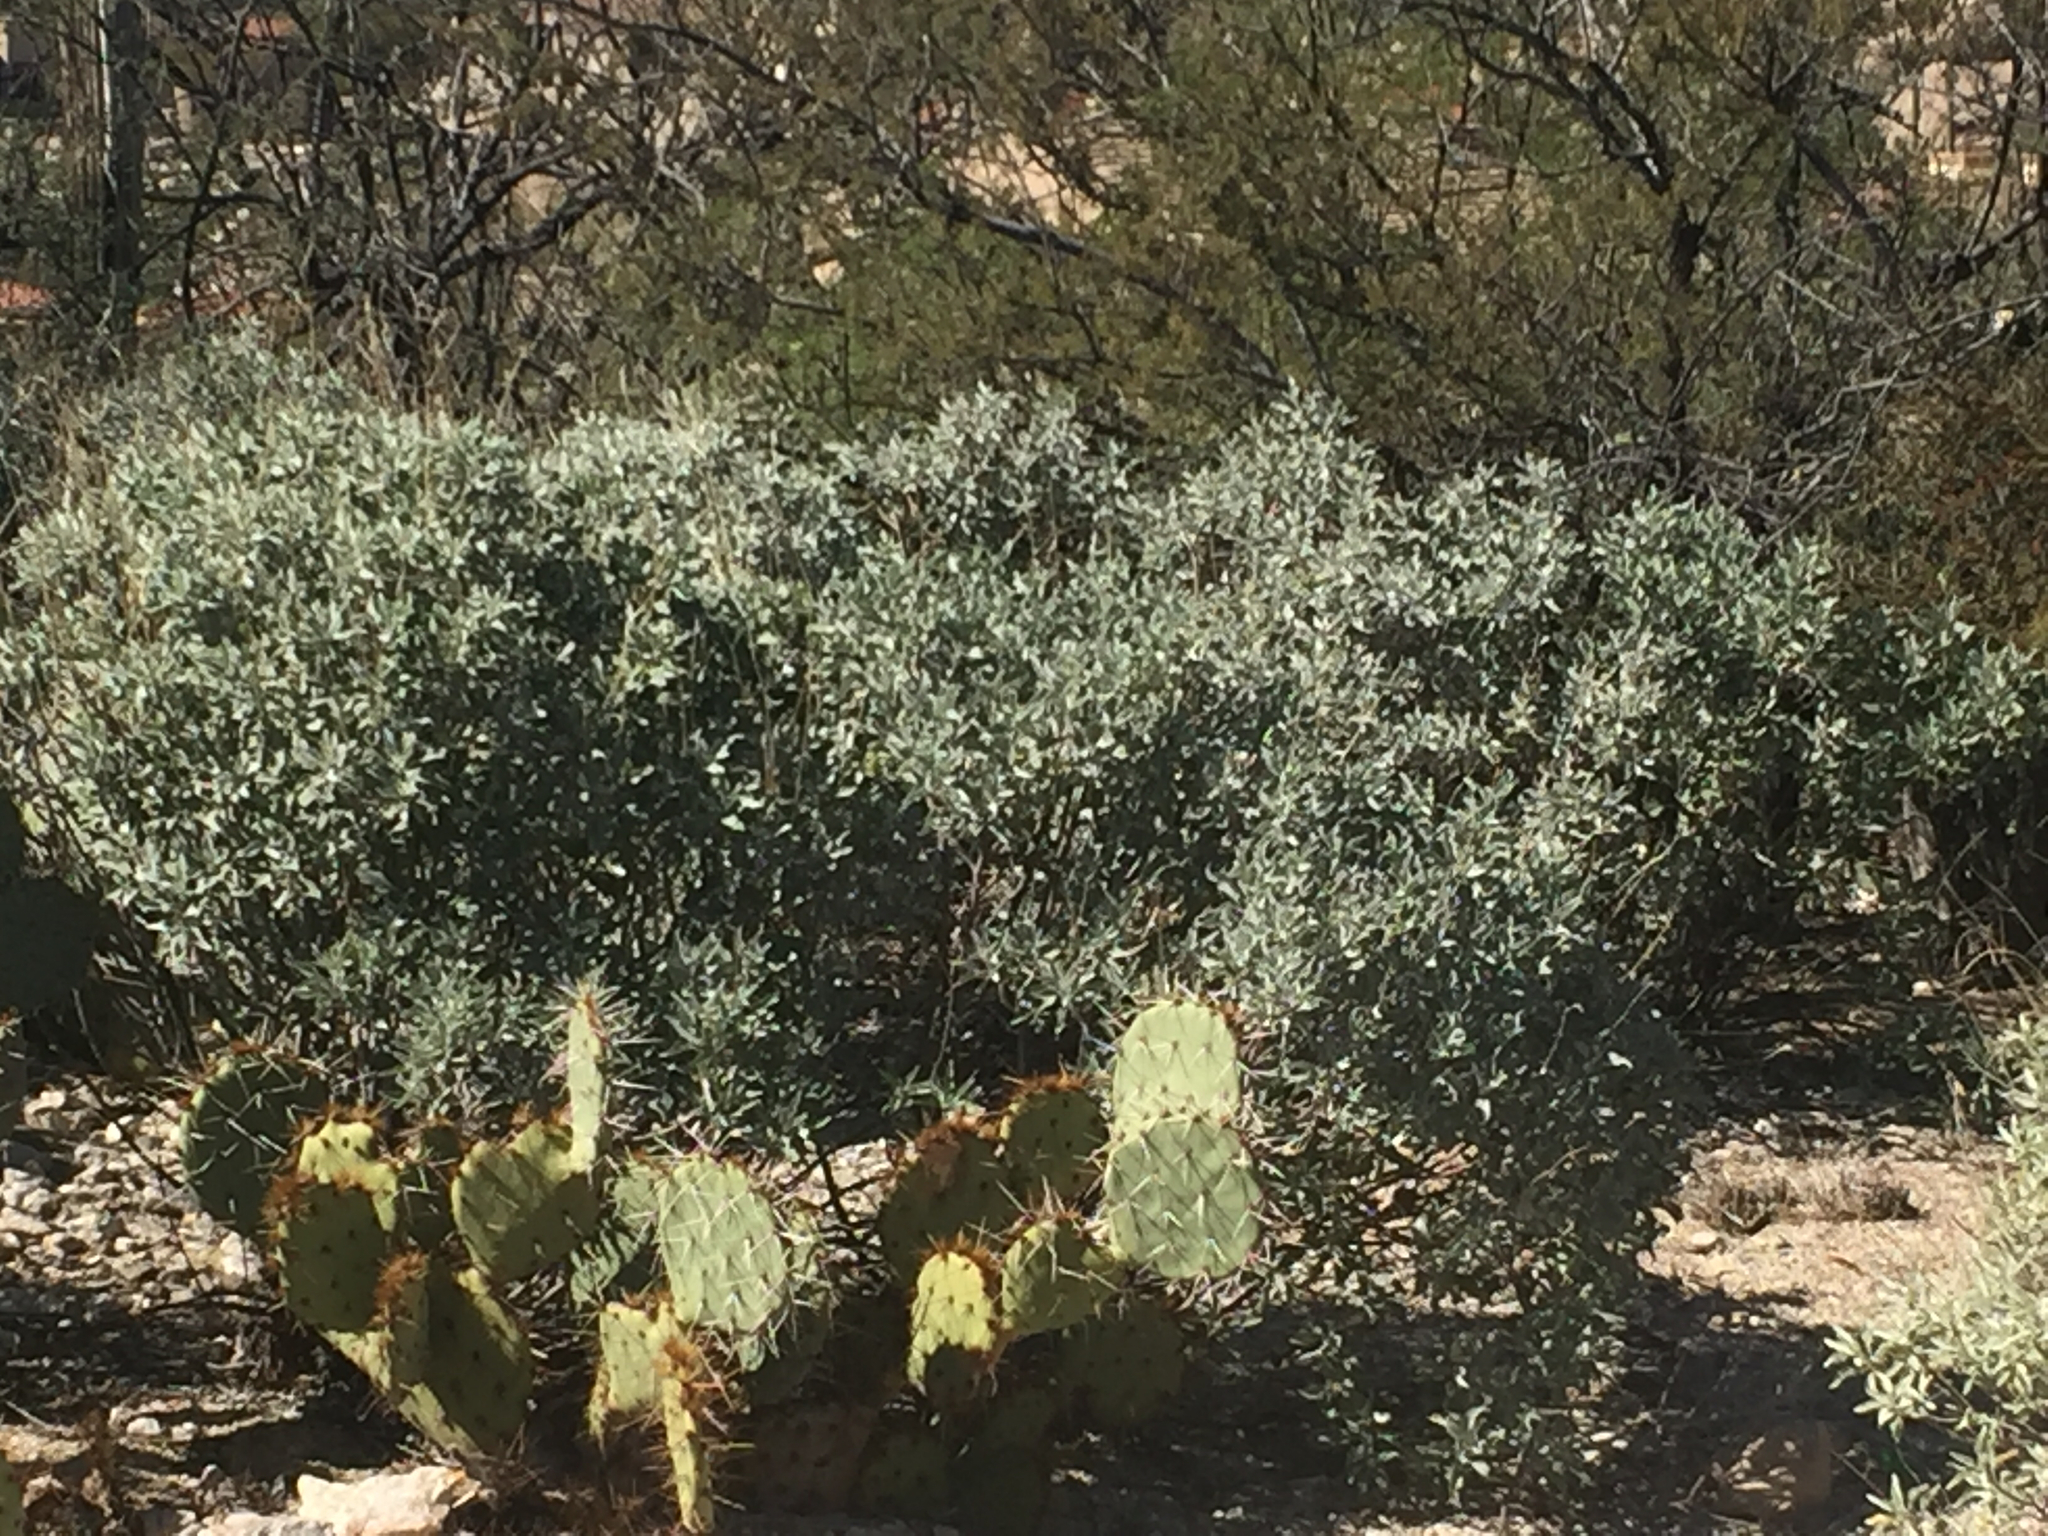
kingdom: Plantae
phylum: Tracheophyta
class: Magnoliopsida
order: Asterales
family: Asteraceae
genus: Encelia
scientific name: Encelia farinosa
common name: Brittlebush
